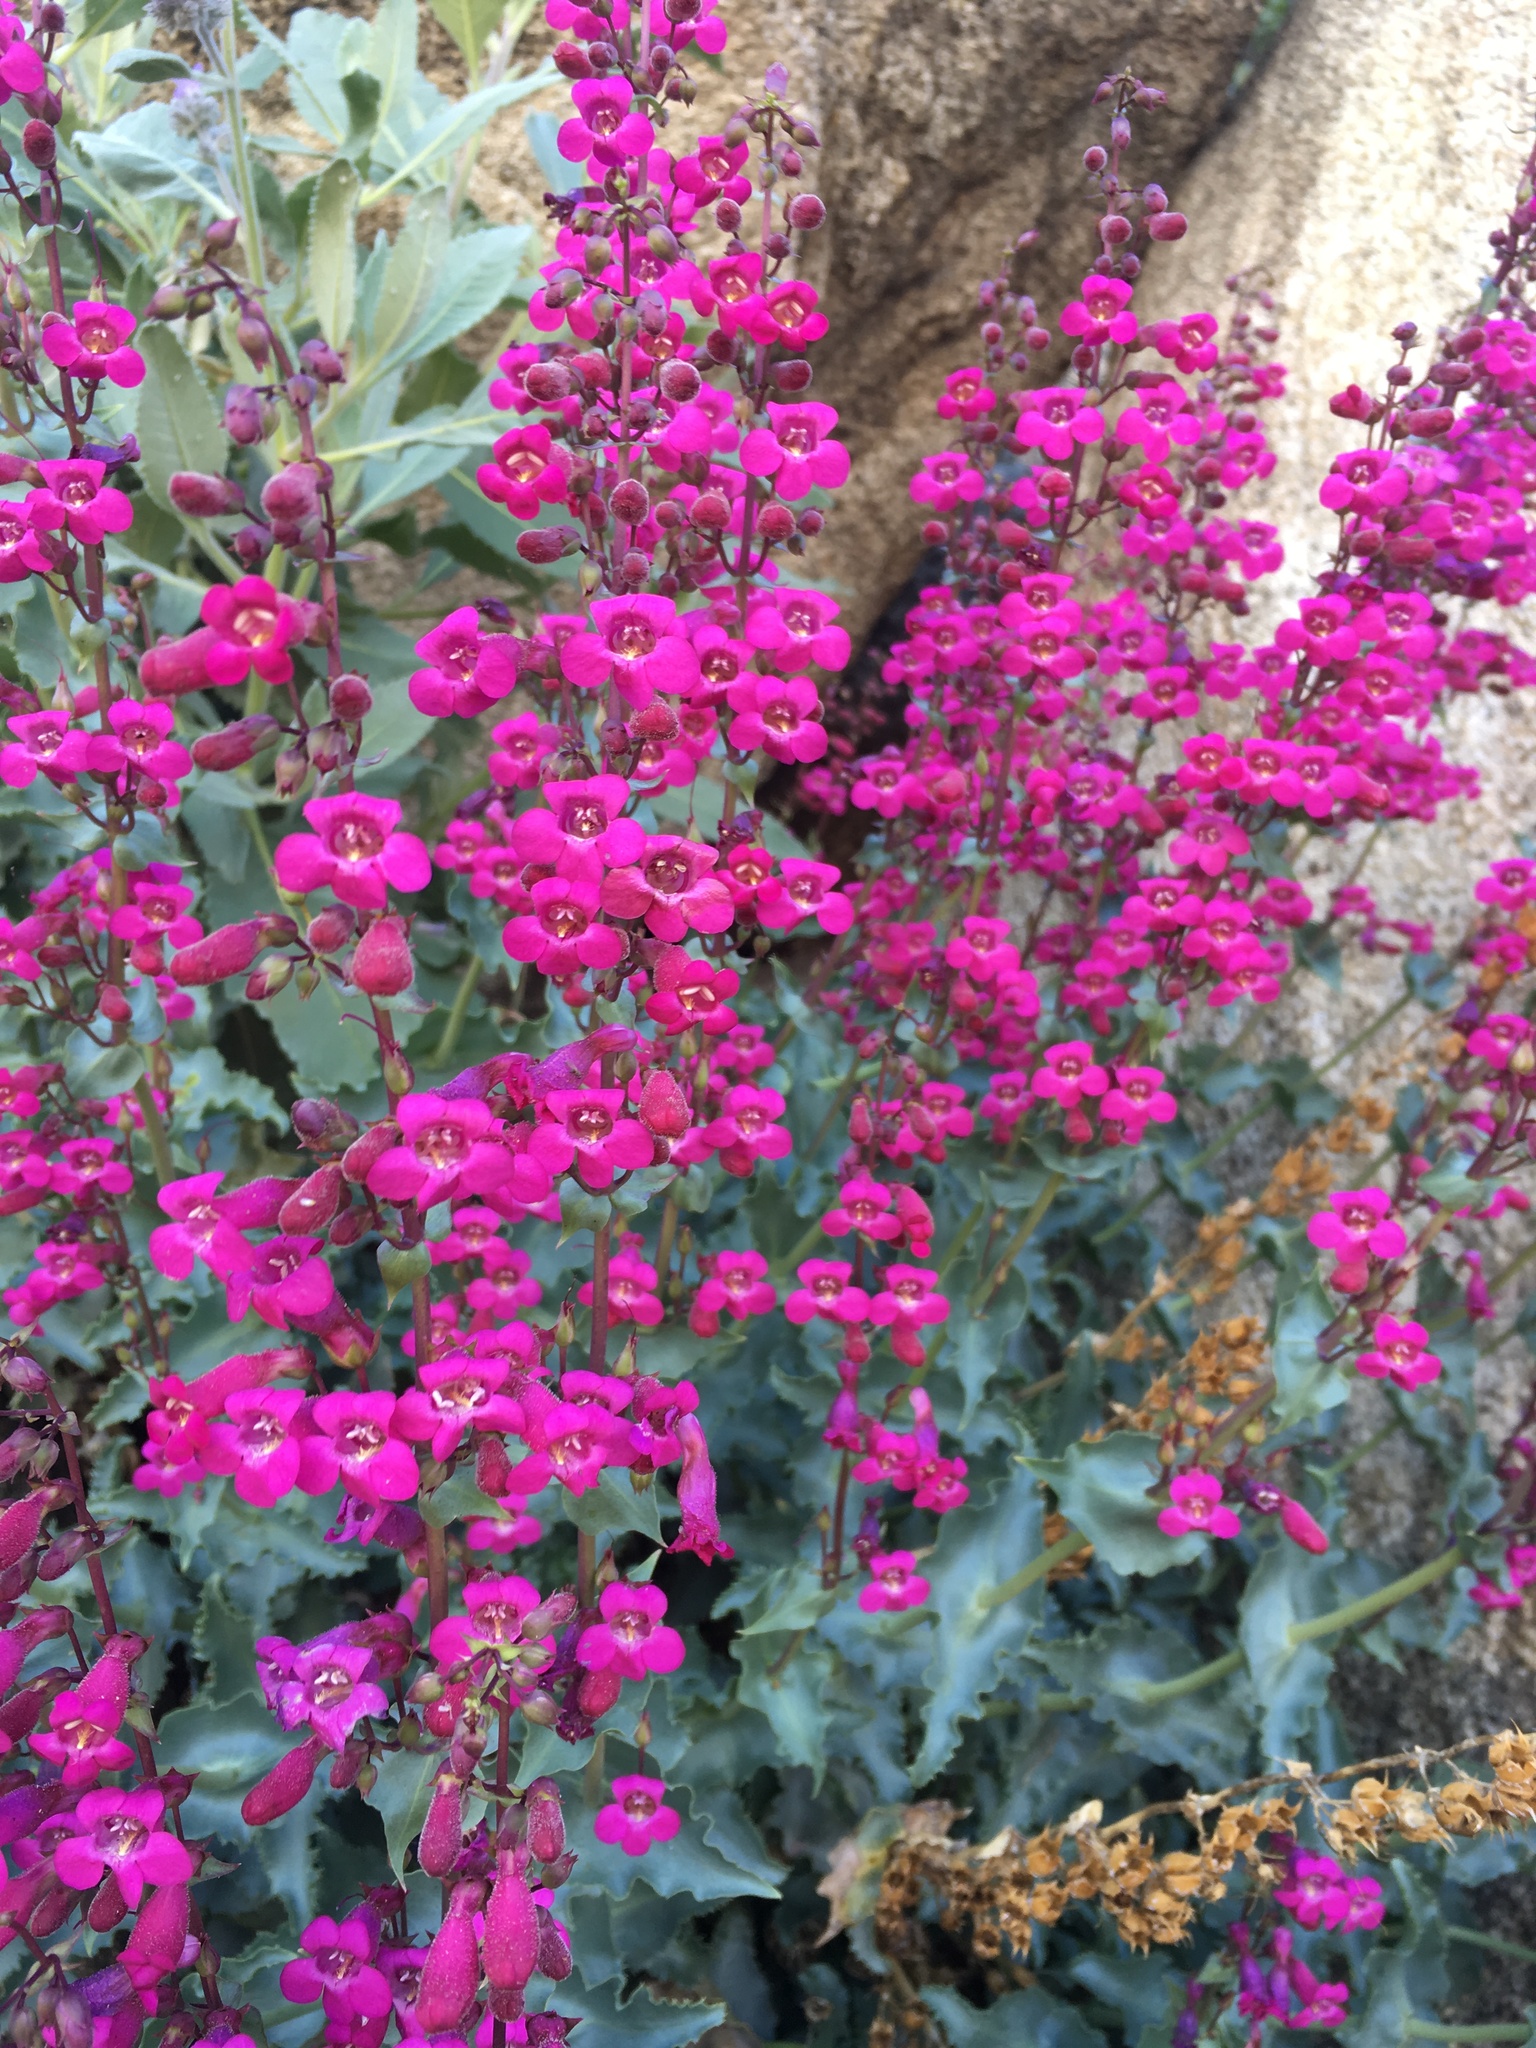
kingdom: Plantae
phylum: Tracheophyta
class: Magnoliopsida
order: Lamiales
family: Plantaginaceae
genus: Penstemon
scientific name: Penstemon clevelandii
